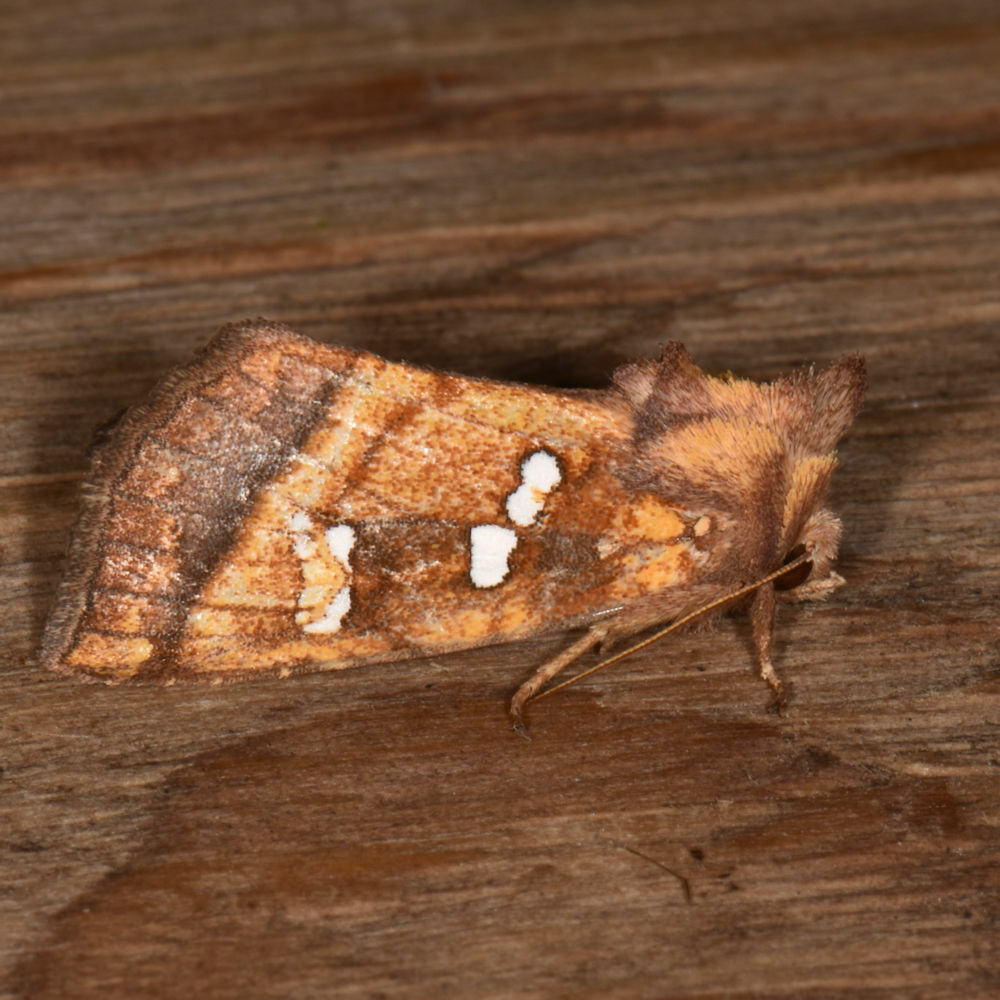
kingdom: Animalia
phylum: Arthropoda
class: Insecta
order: Lepidoptera
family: Noctuidae
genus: Papaipema
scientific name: Papaipema pterisii
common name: Bracken borer moth
